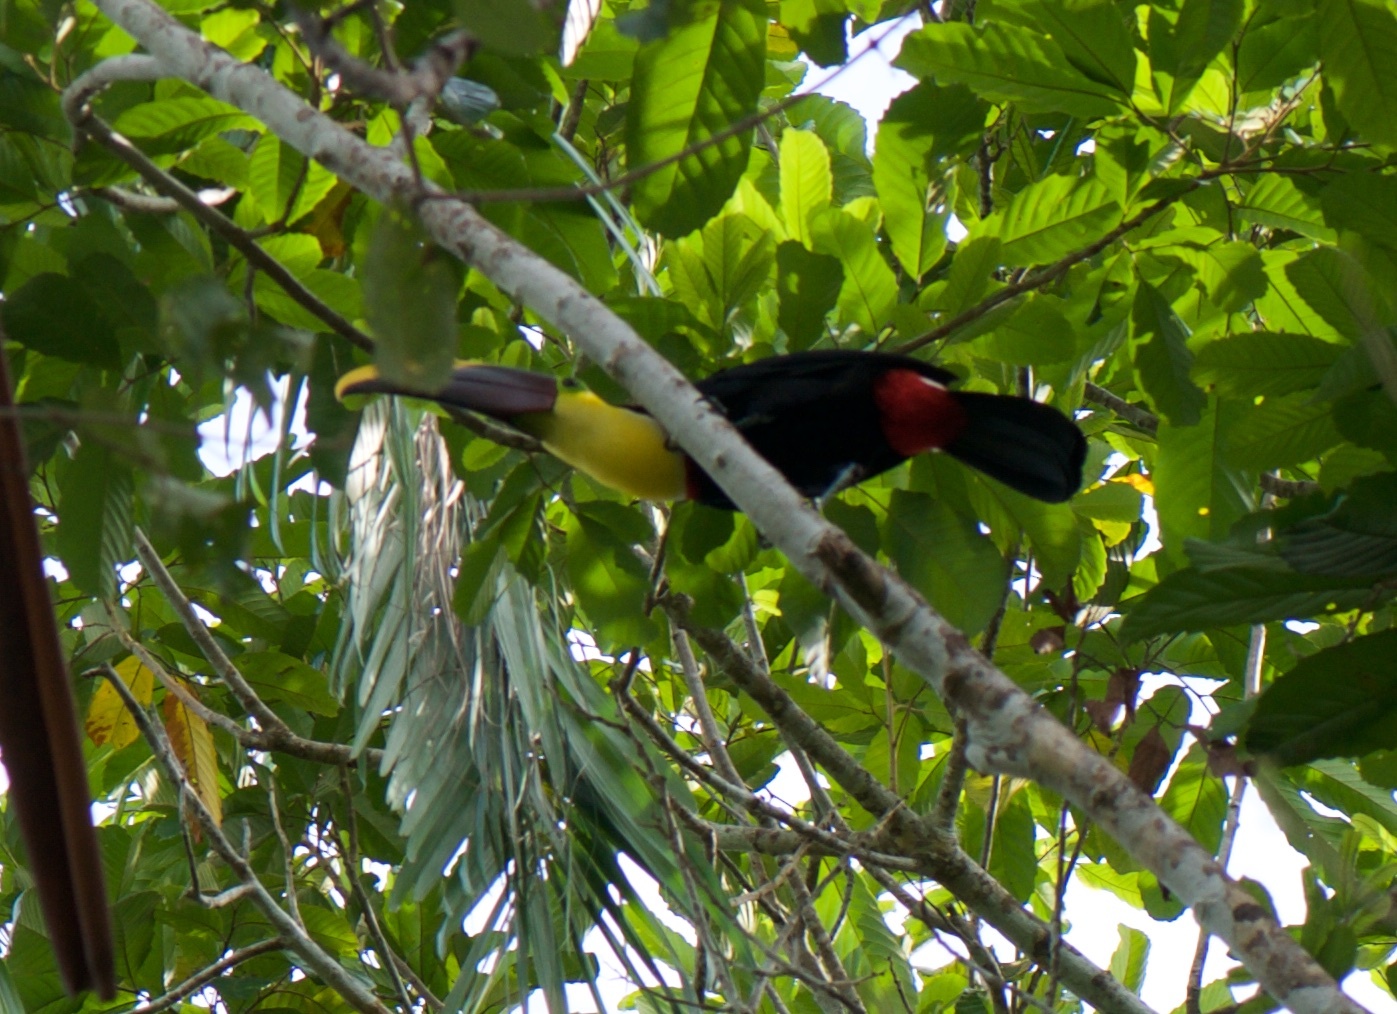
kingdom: Animalia
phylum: Chordata
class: Aves
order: Piciformes
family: Ramphastidae
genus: Ramphastos
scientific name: Ramphastos ambiguus
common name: Yellow-throated toucan
